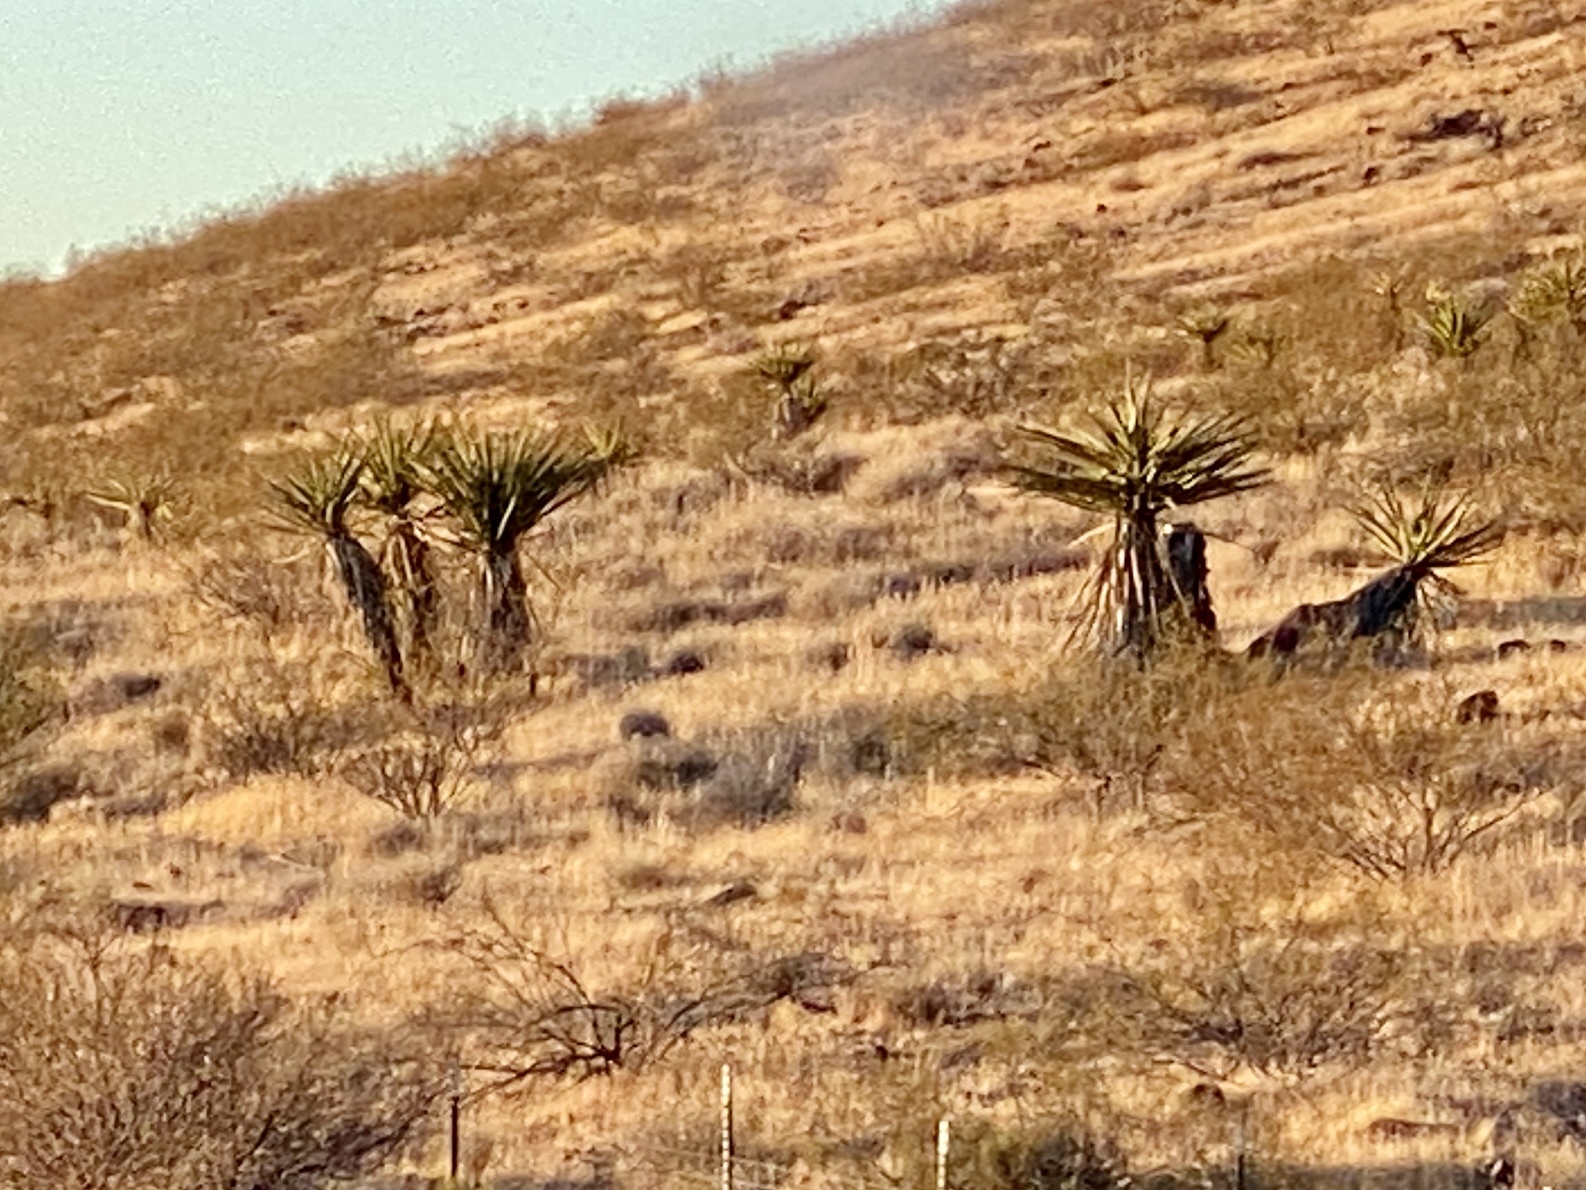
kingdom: Plantae
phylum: Tracheophyta
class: Liliopsida
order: Asparagales
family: Asparagaceae
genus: Yucca
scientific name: Yucca schidigera
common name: Mojave yucca
